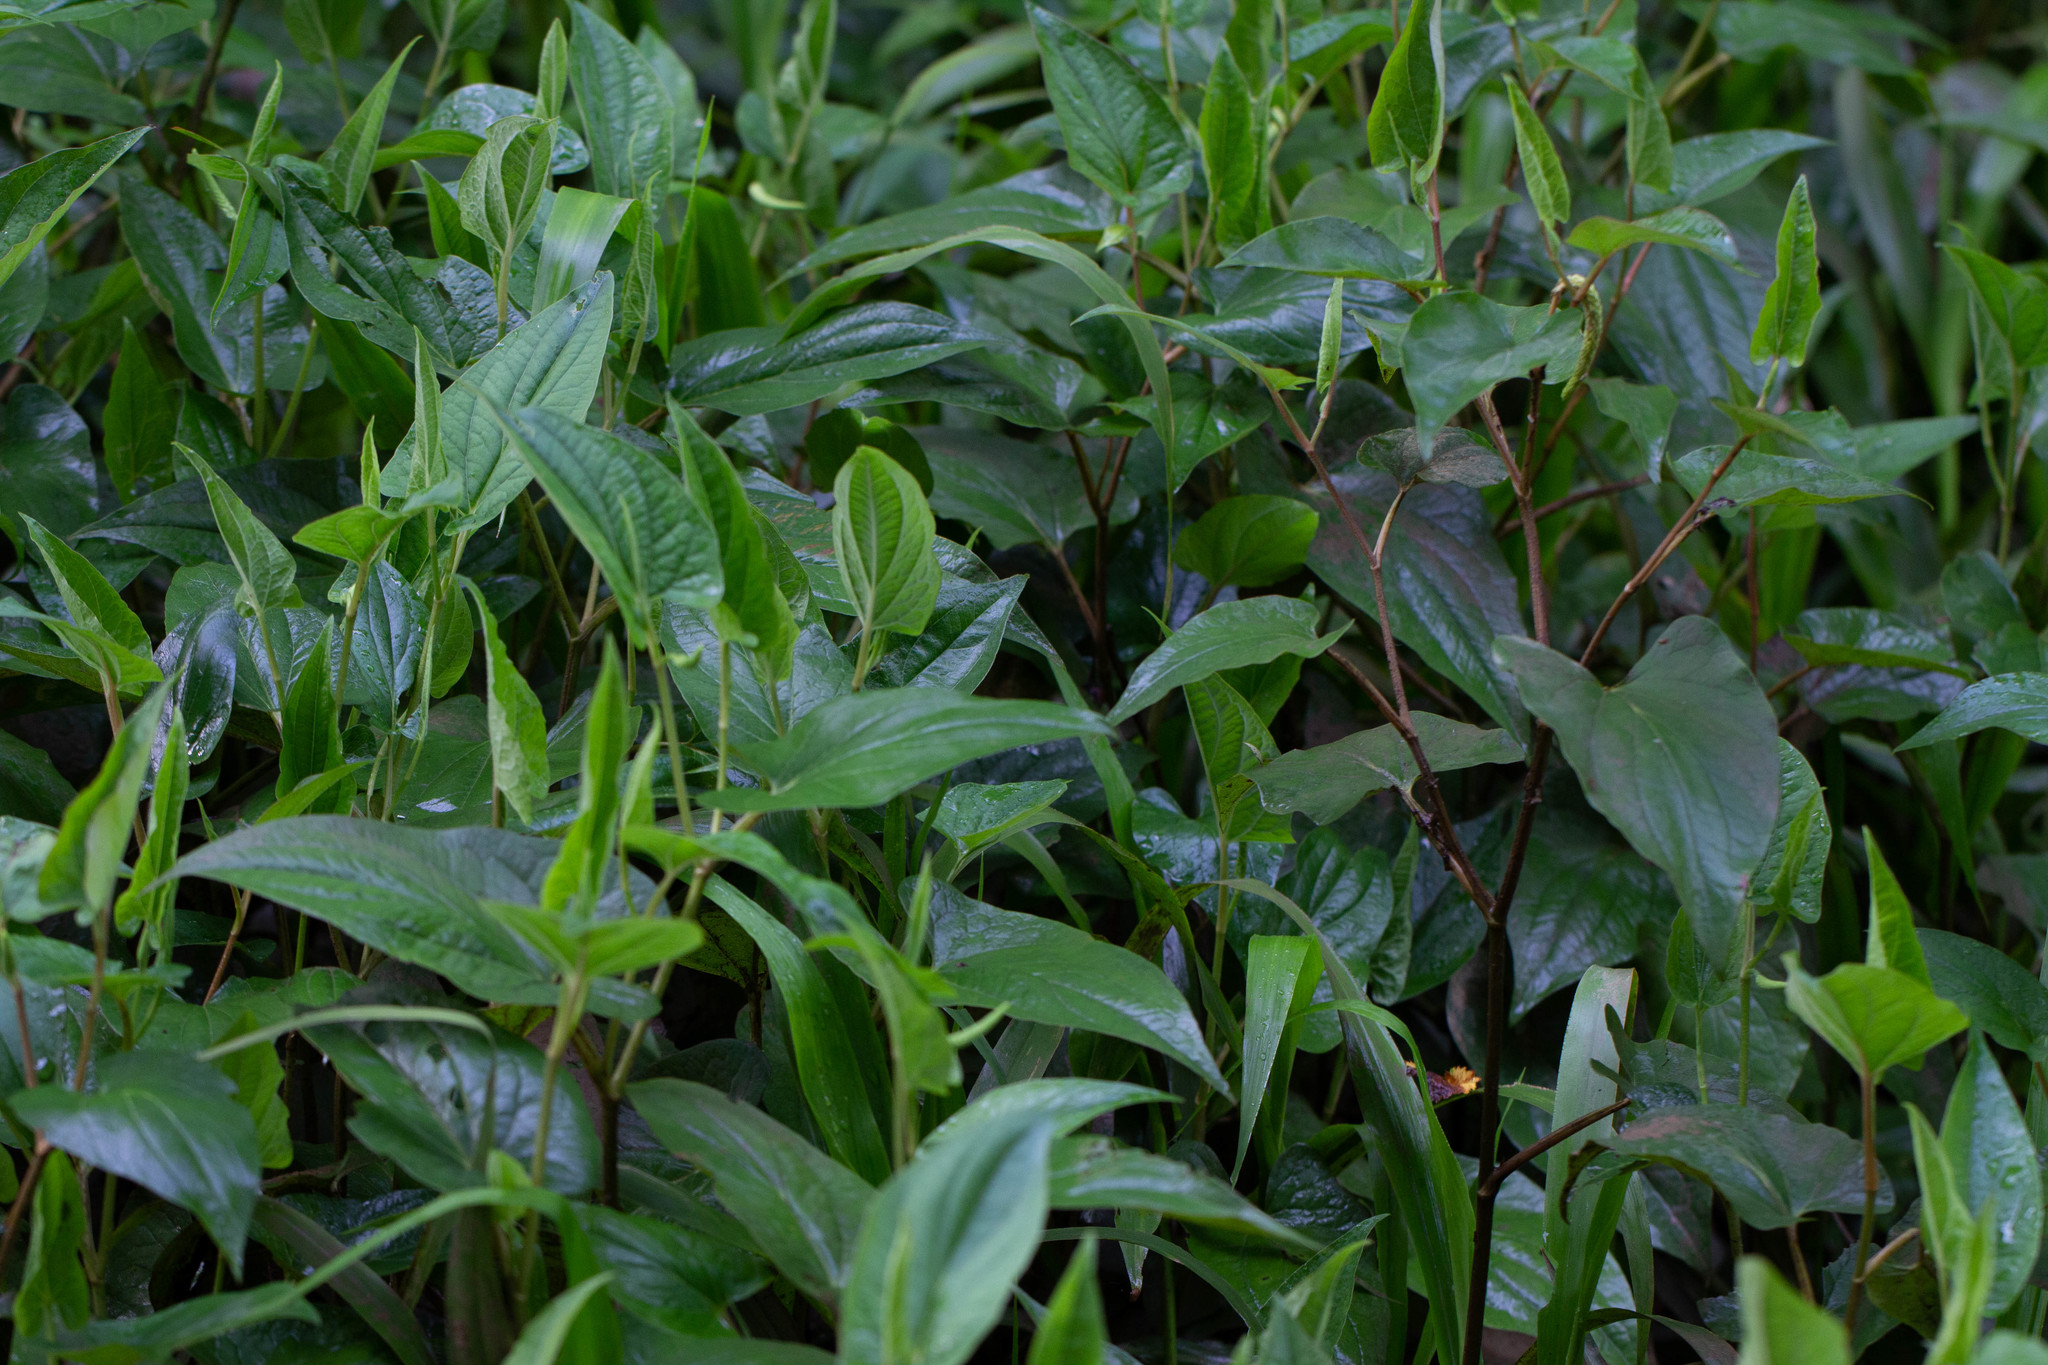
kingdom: Plantae
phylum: Tracheophyta
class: Magnoliopsida
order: Piperales
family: Saururaceae
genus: Saururus
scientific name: Saururus cernuus
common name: Lizard's-tail
